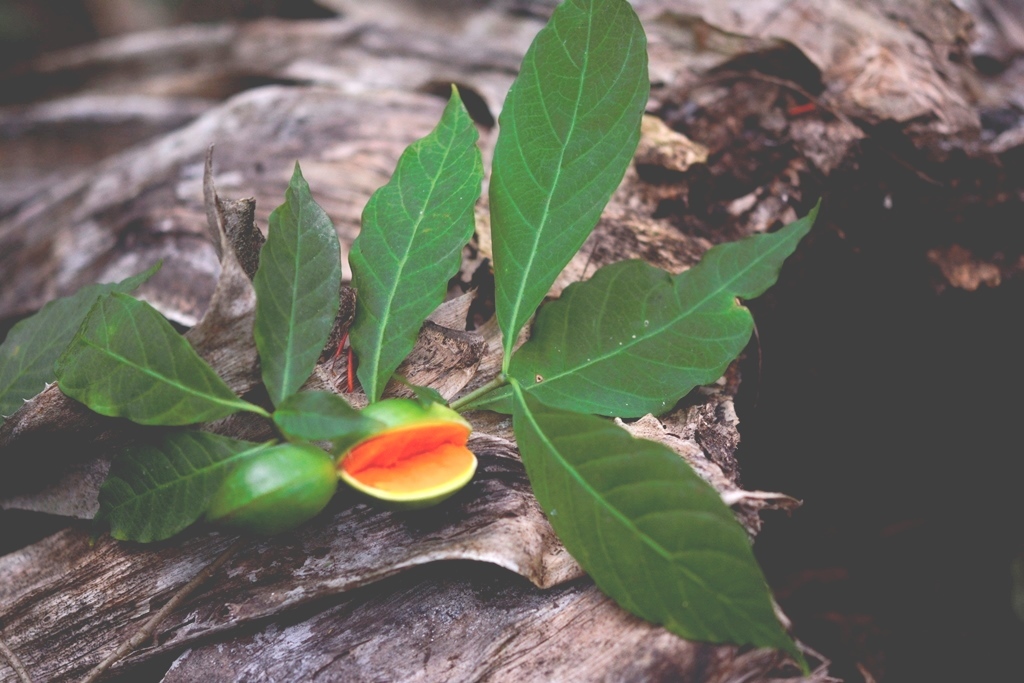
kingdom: Plantae
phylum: Tracheophyta
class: Magnoliopsida
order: Gentianales
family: Apocynaceae
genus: Tabernaemontana
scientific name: Tabernaemontana hannae
